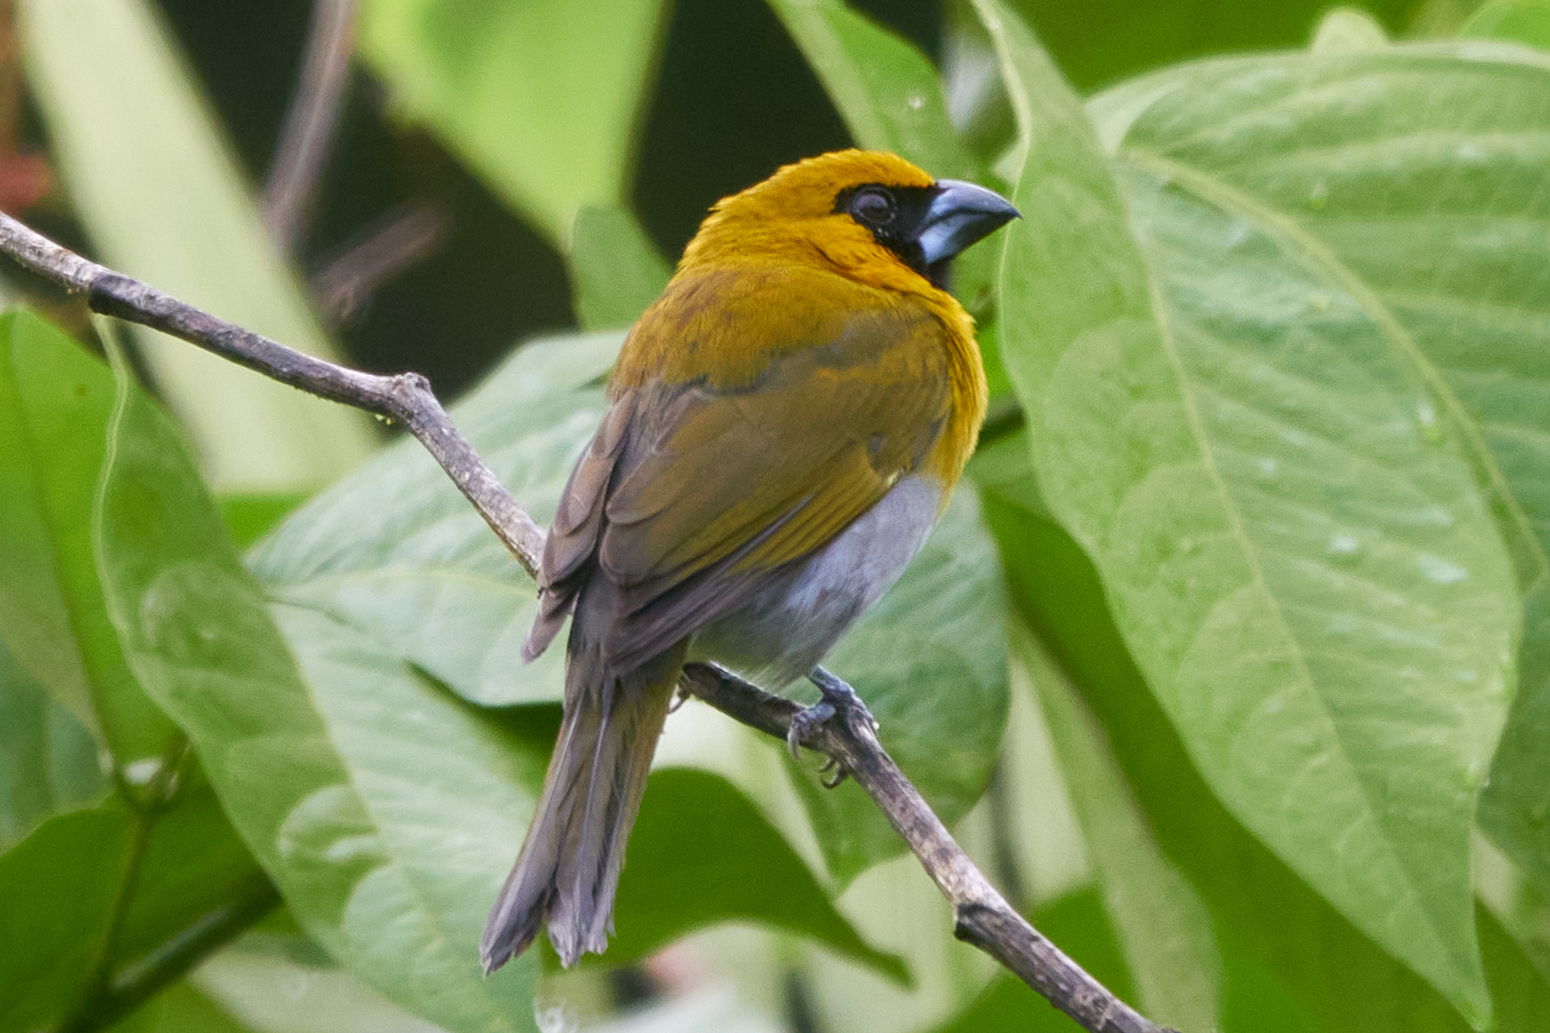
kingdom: Animalia
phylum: Chordata
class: Aves
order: Passeriformes
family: Cardinalidae
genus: Caryothraustes
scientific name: Caryothraustes poliogaster
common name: Black-faced grosbeak
